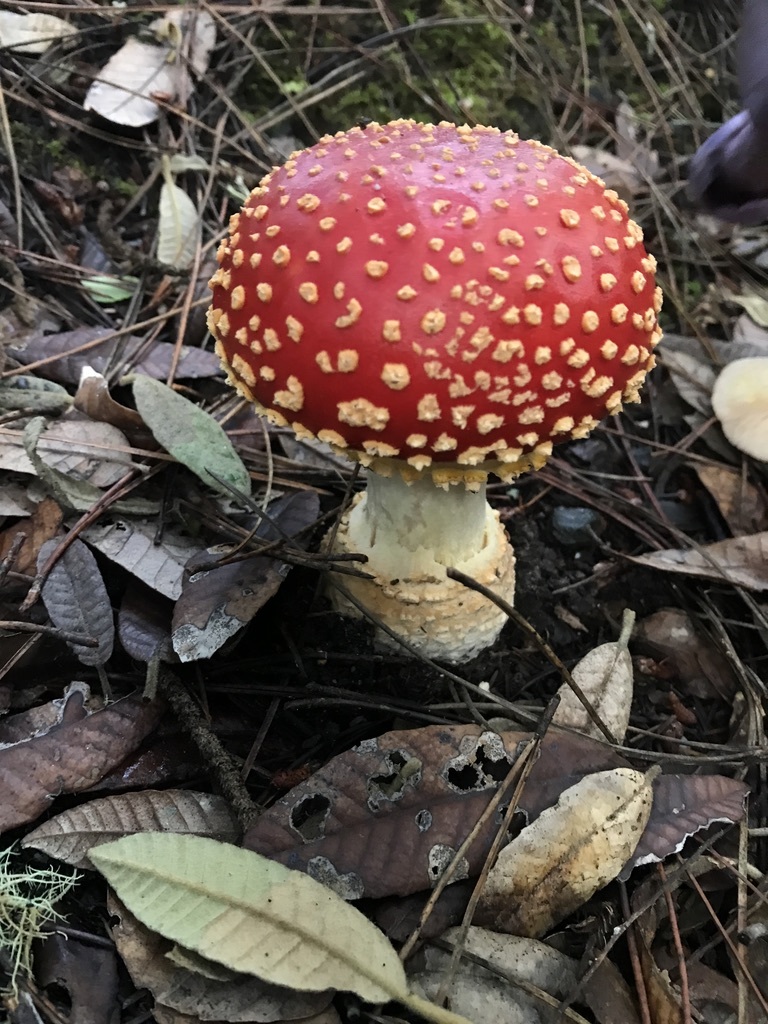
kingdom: Fungi
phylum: Basidiomycota
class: Agaricomycetes
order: Agaricales
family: Amanitaceae
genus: Amanita
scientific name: Amanita muscaria
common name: Fly agaric
